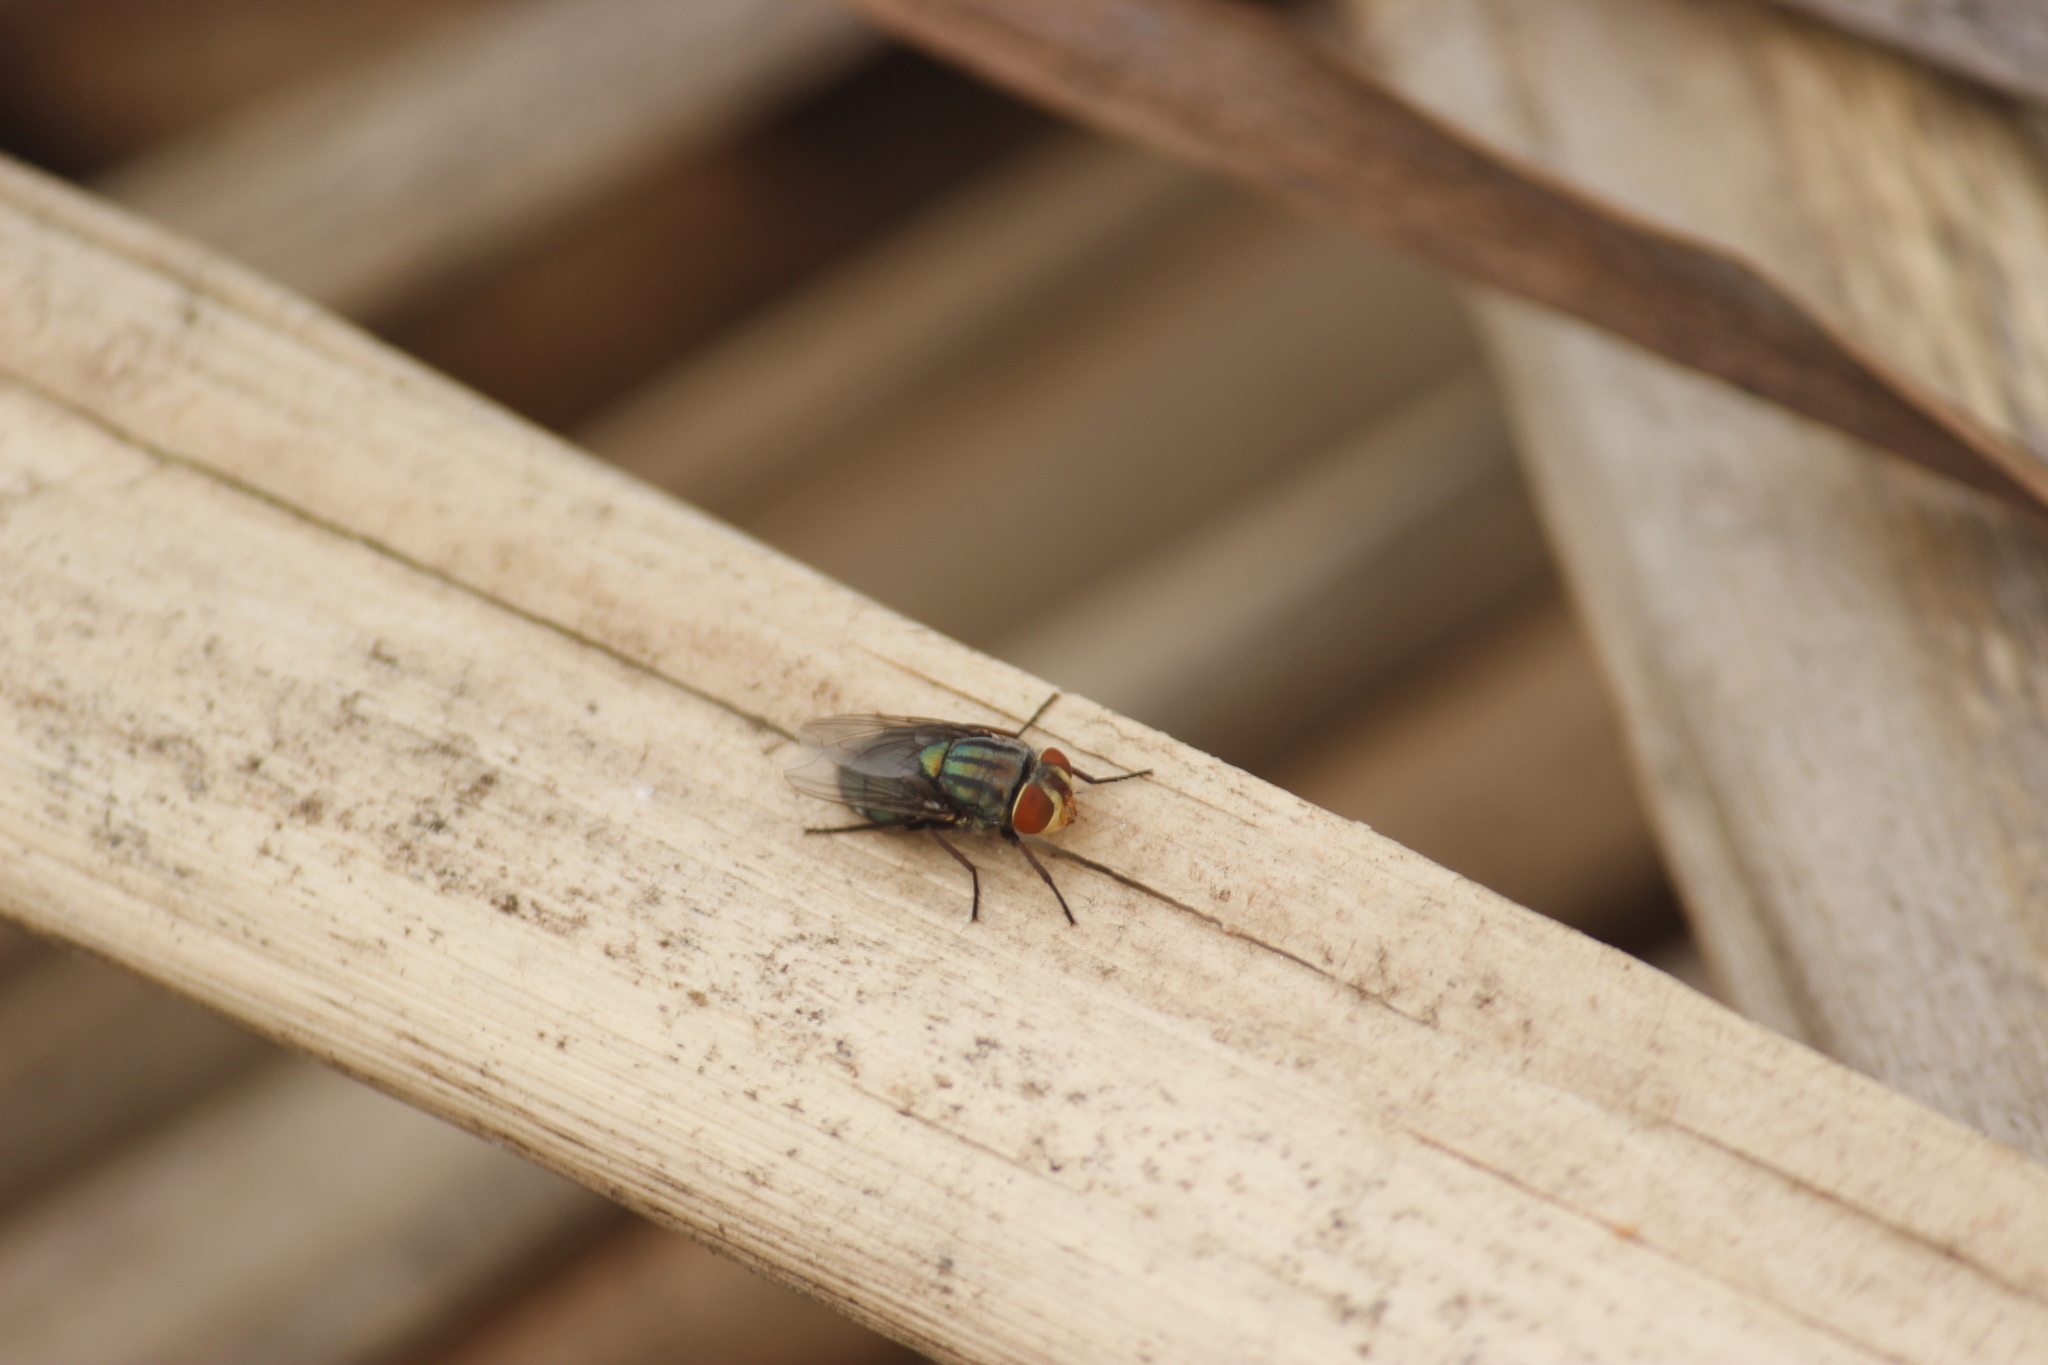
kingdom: Animalia
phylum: Arthropoda
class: Insecta
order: Diptera
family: Calliphoridae
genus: Cochliomyia
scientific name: Cochliomyia macellaria
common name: Secondary screwworm
